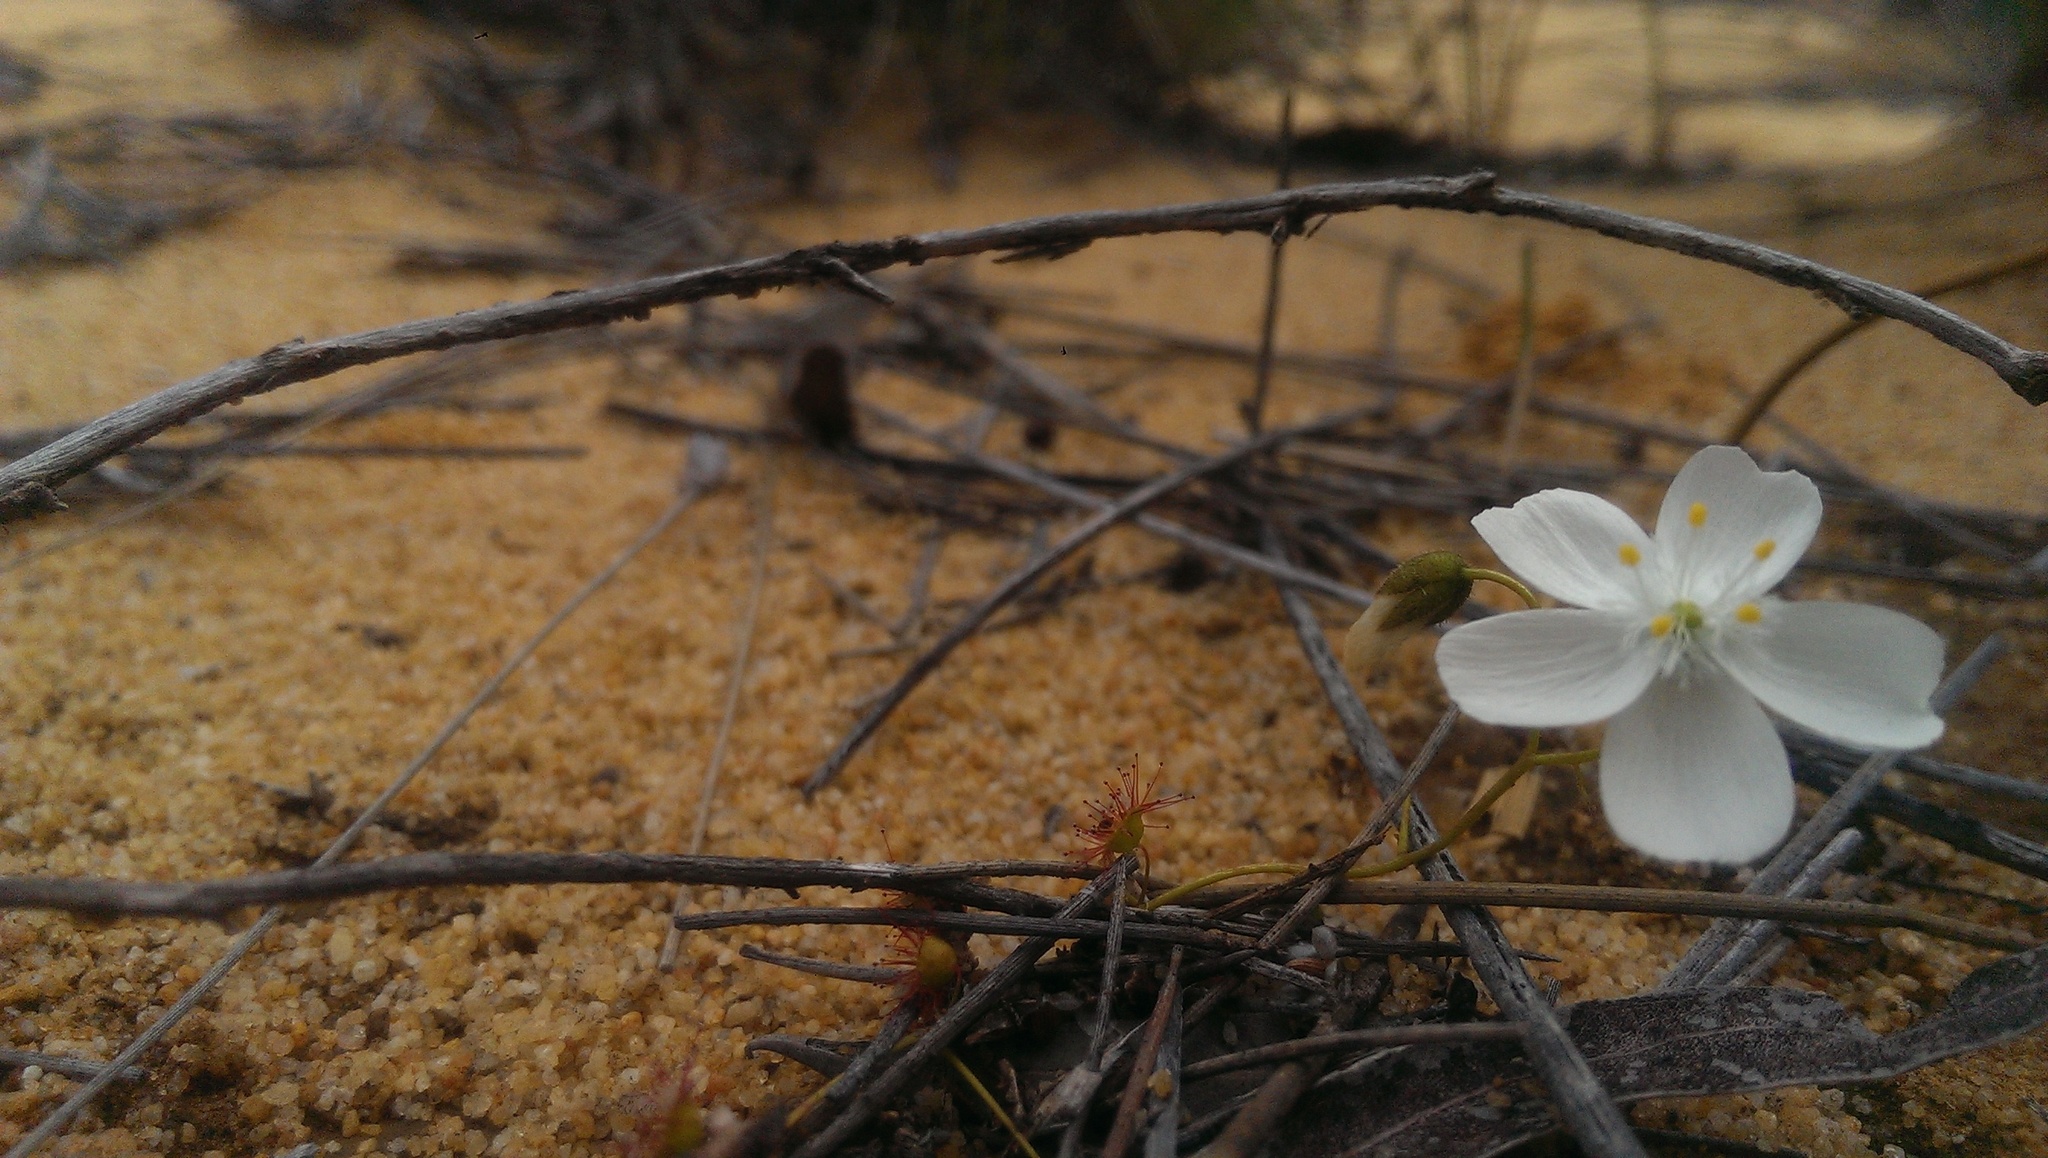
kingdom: Plantae
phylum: Tracheophyta
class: Magnoliopsida
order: Caryophyllales
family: Droseraceae
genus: Drosera
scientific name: Drosera macrantha
